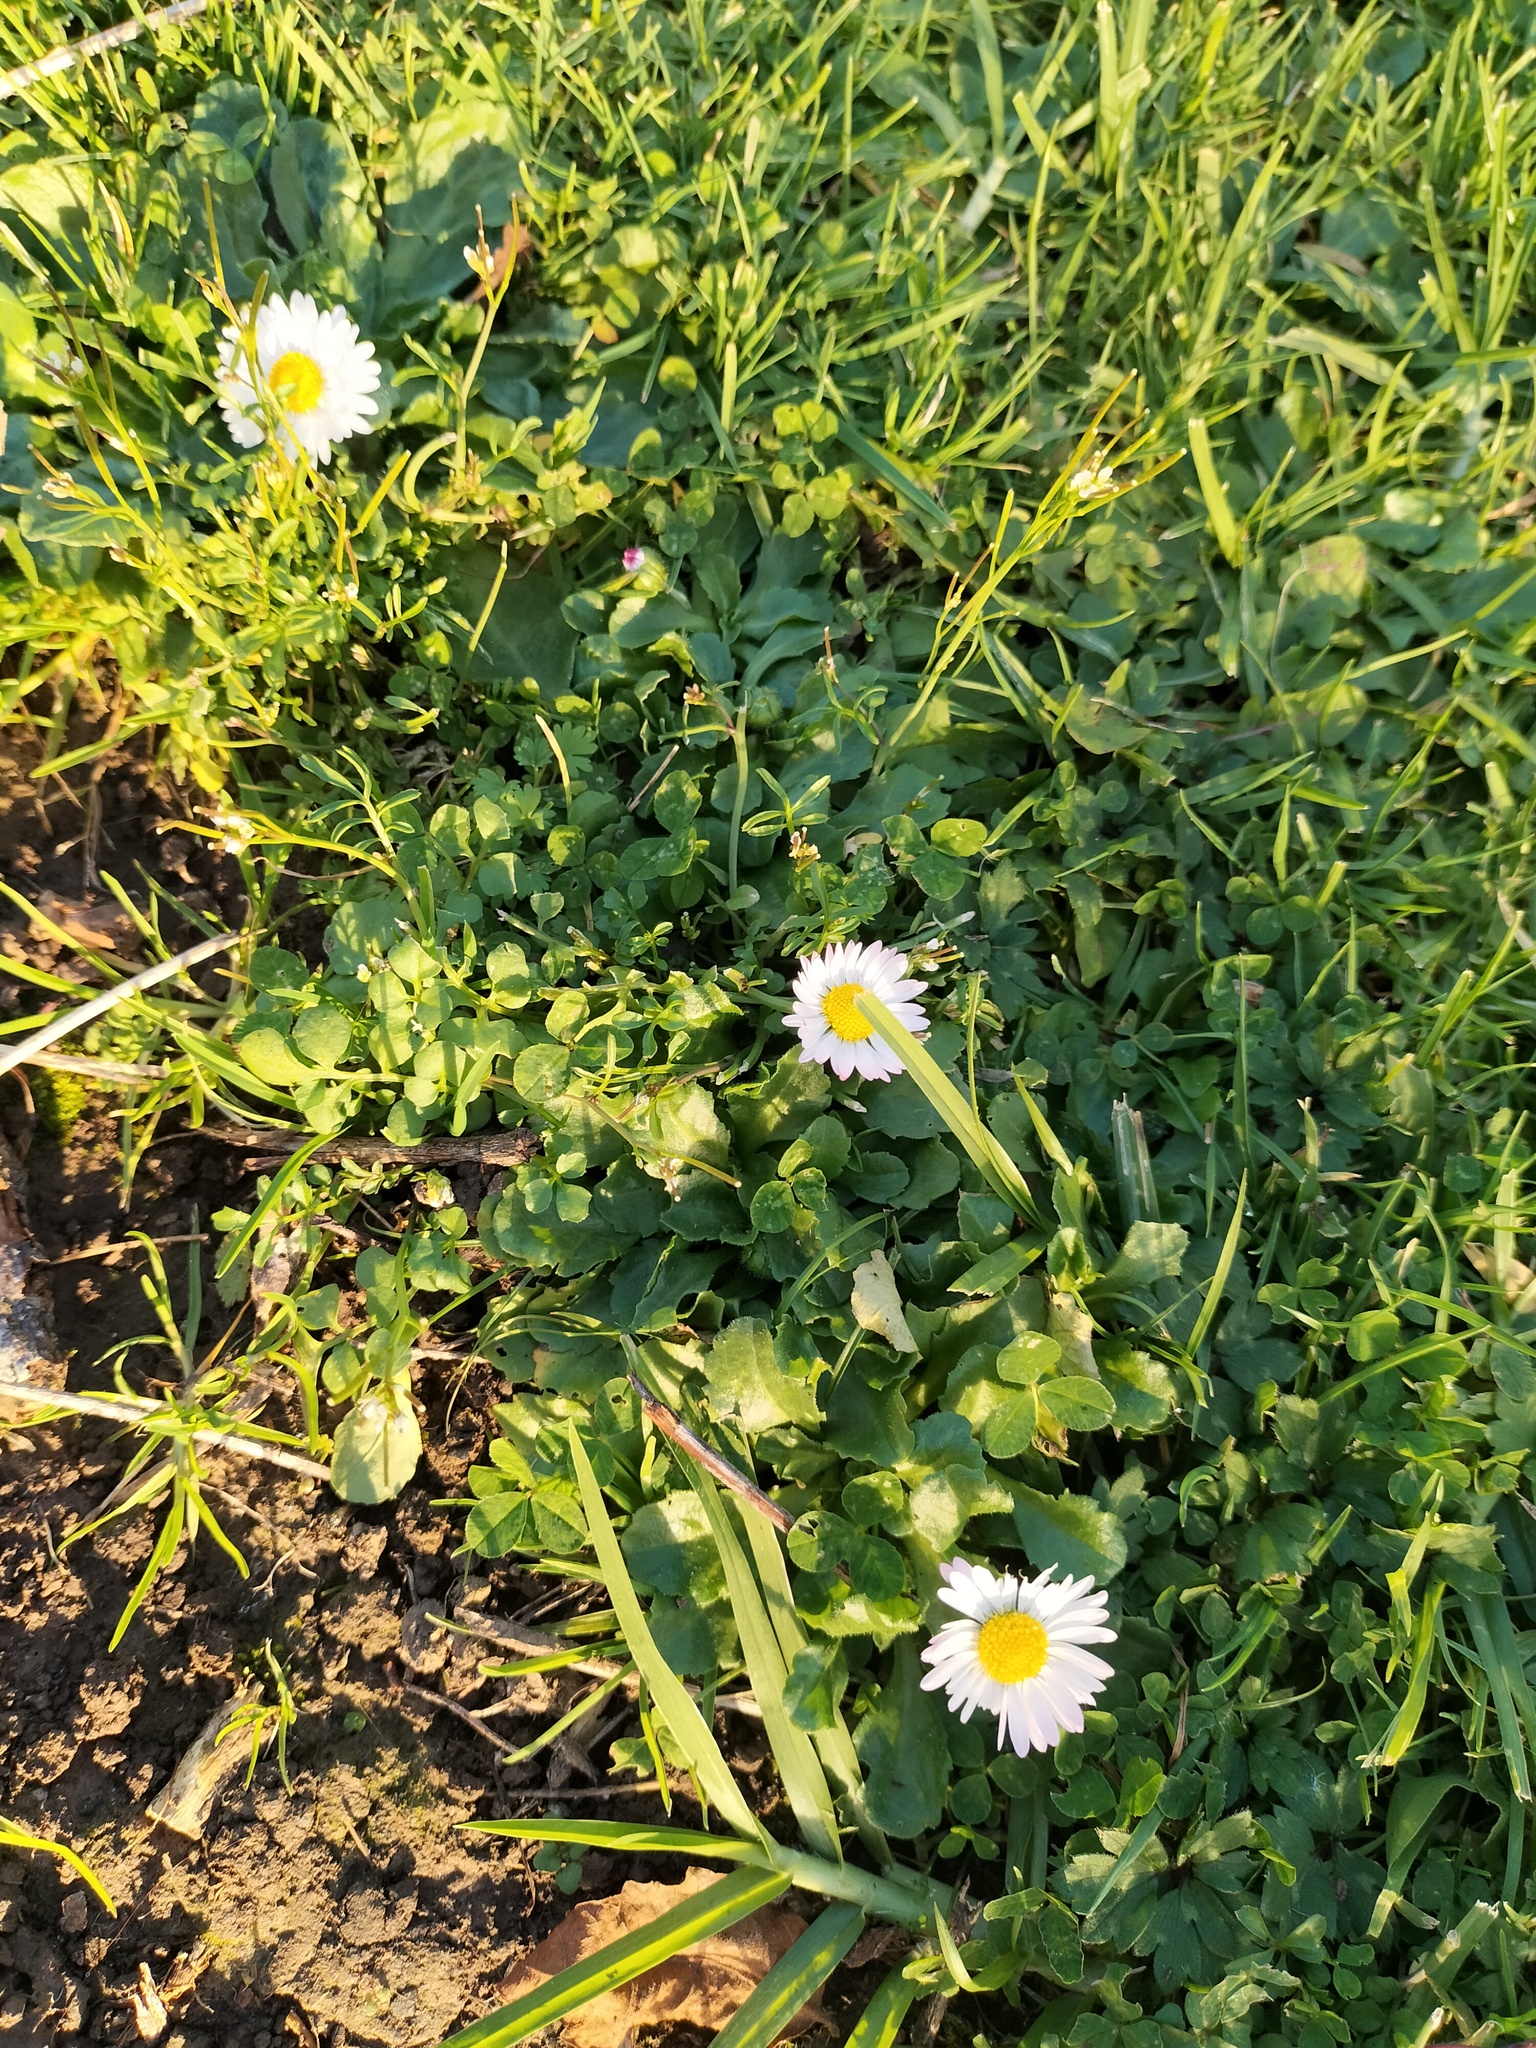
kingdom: Plantae
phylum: Tracheophyta
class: Magnoliopsida
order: Asterales
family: Asteraceae
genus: Bellis
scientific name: Bellis perennis
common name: Lawndaisy
